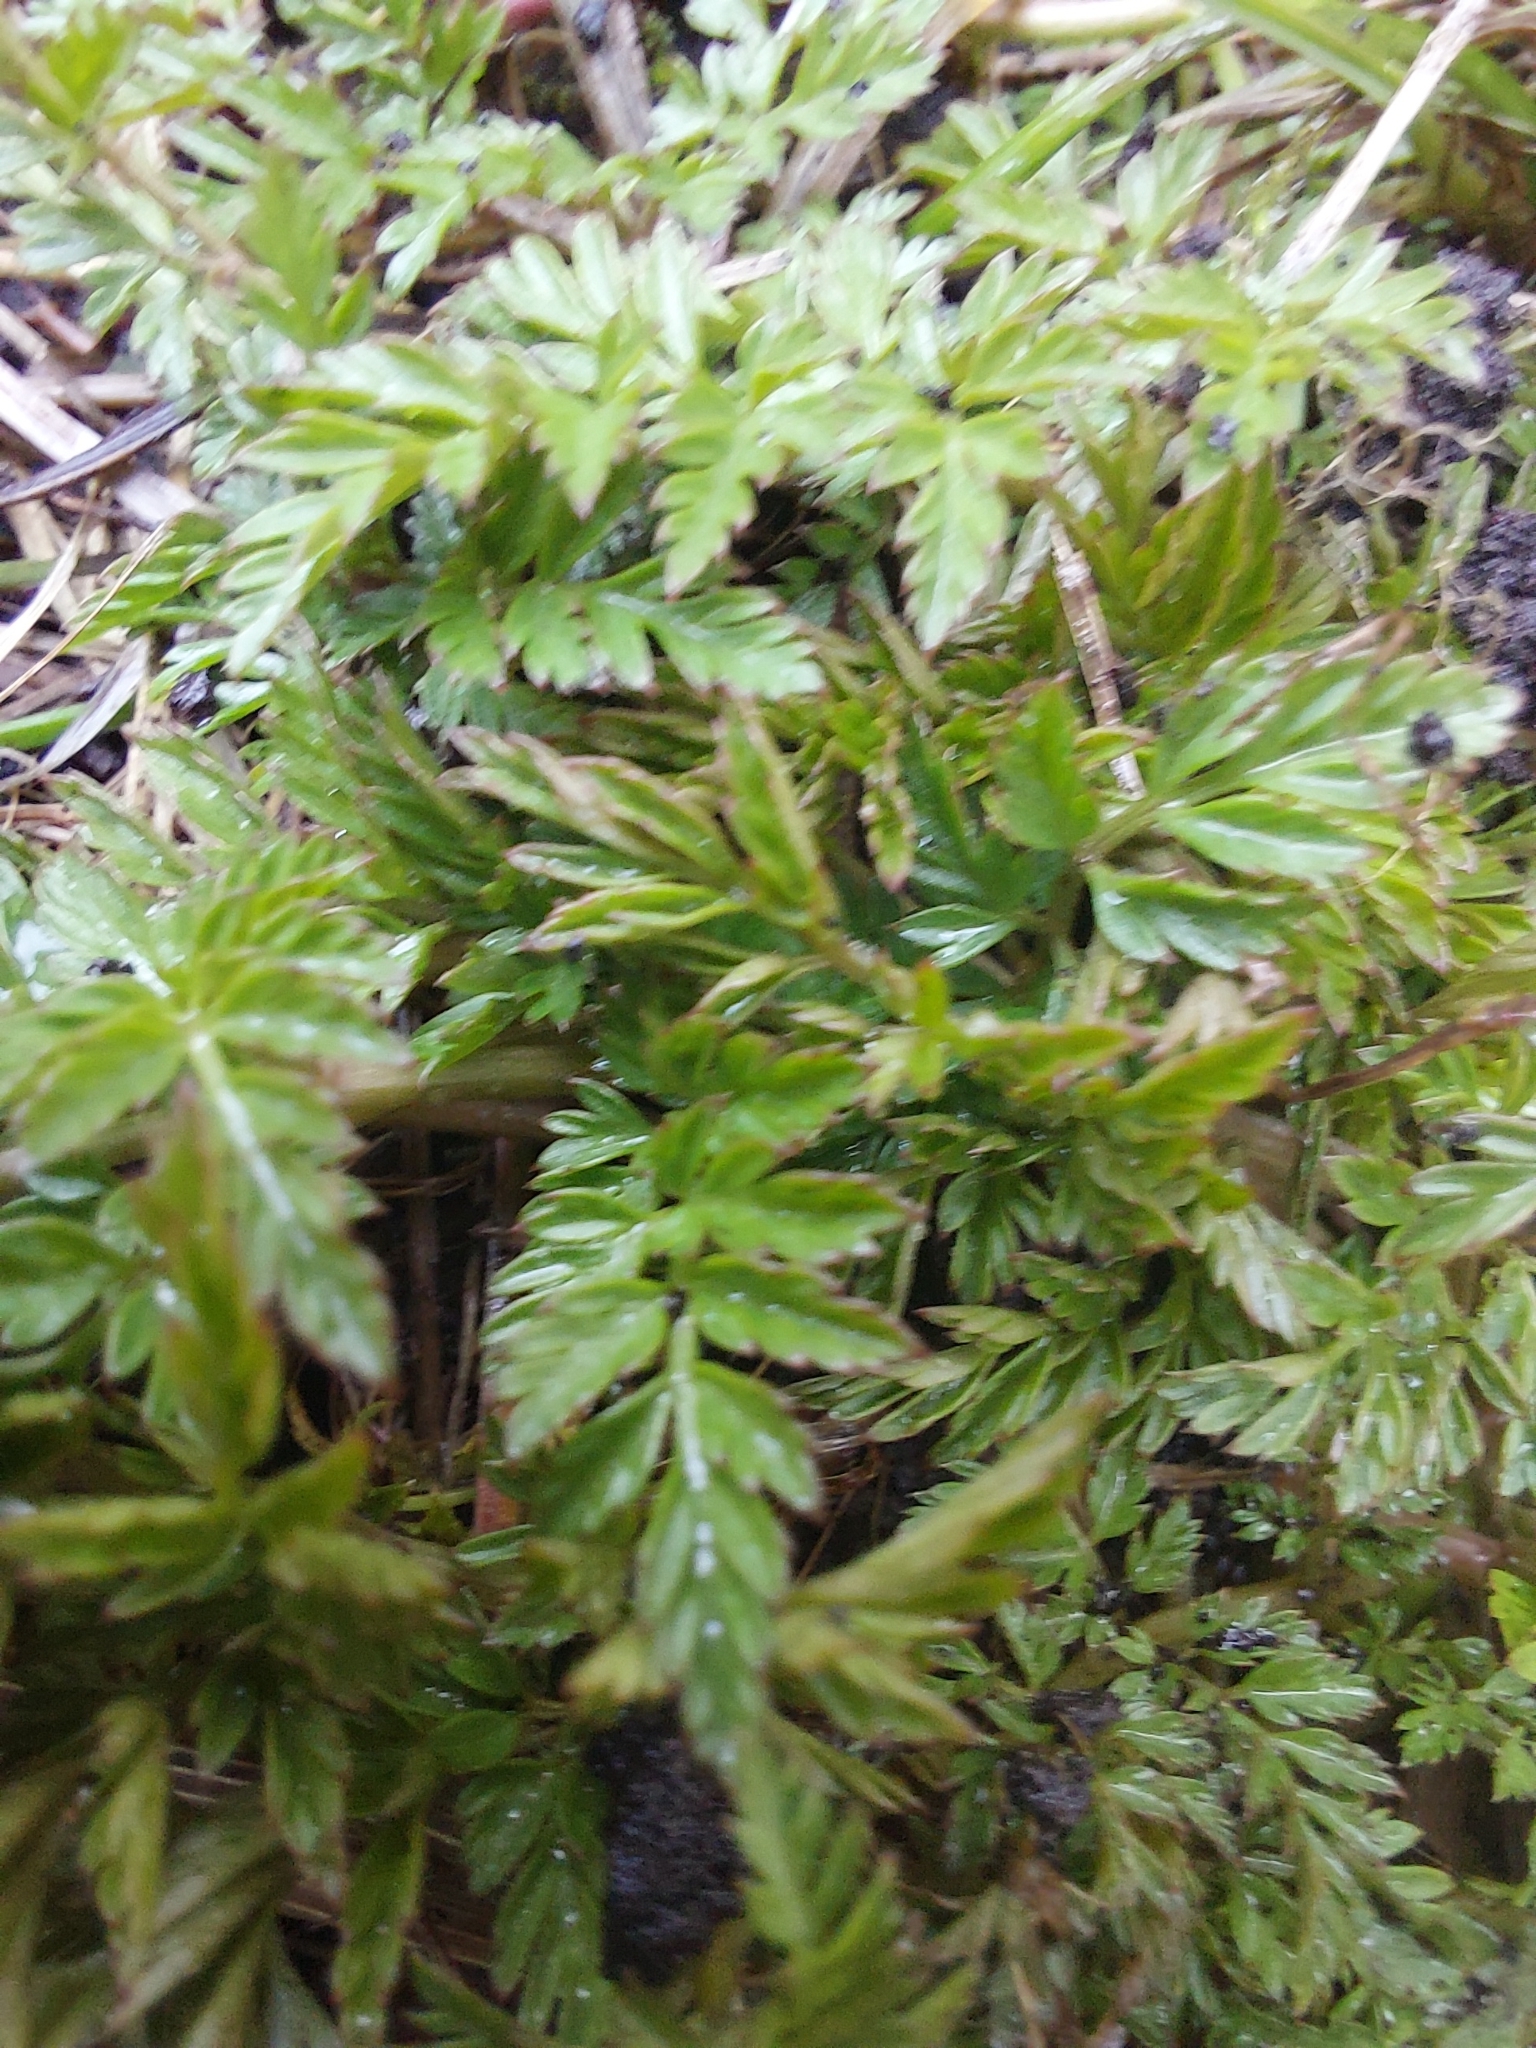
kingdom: Plantae
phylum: Tracheophyta
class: Magnoliopsida
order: Apiales
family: Apiaceae
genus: Anthriscus
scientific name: Anthriscus sylvestris
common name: Cow parsley
